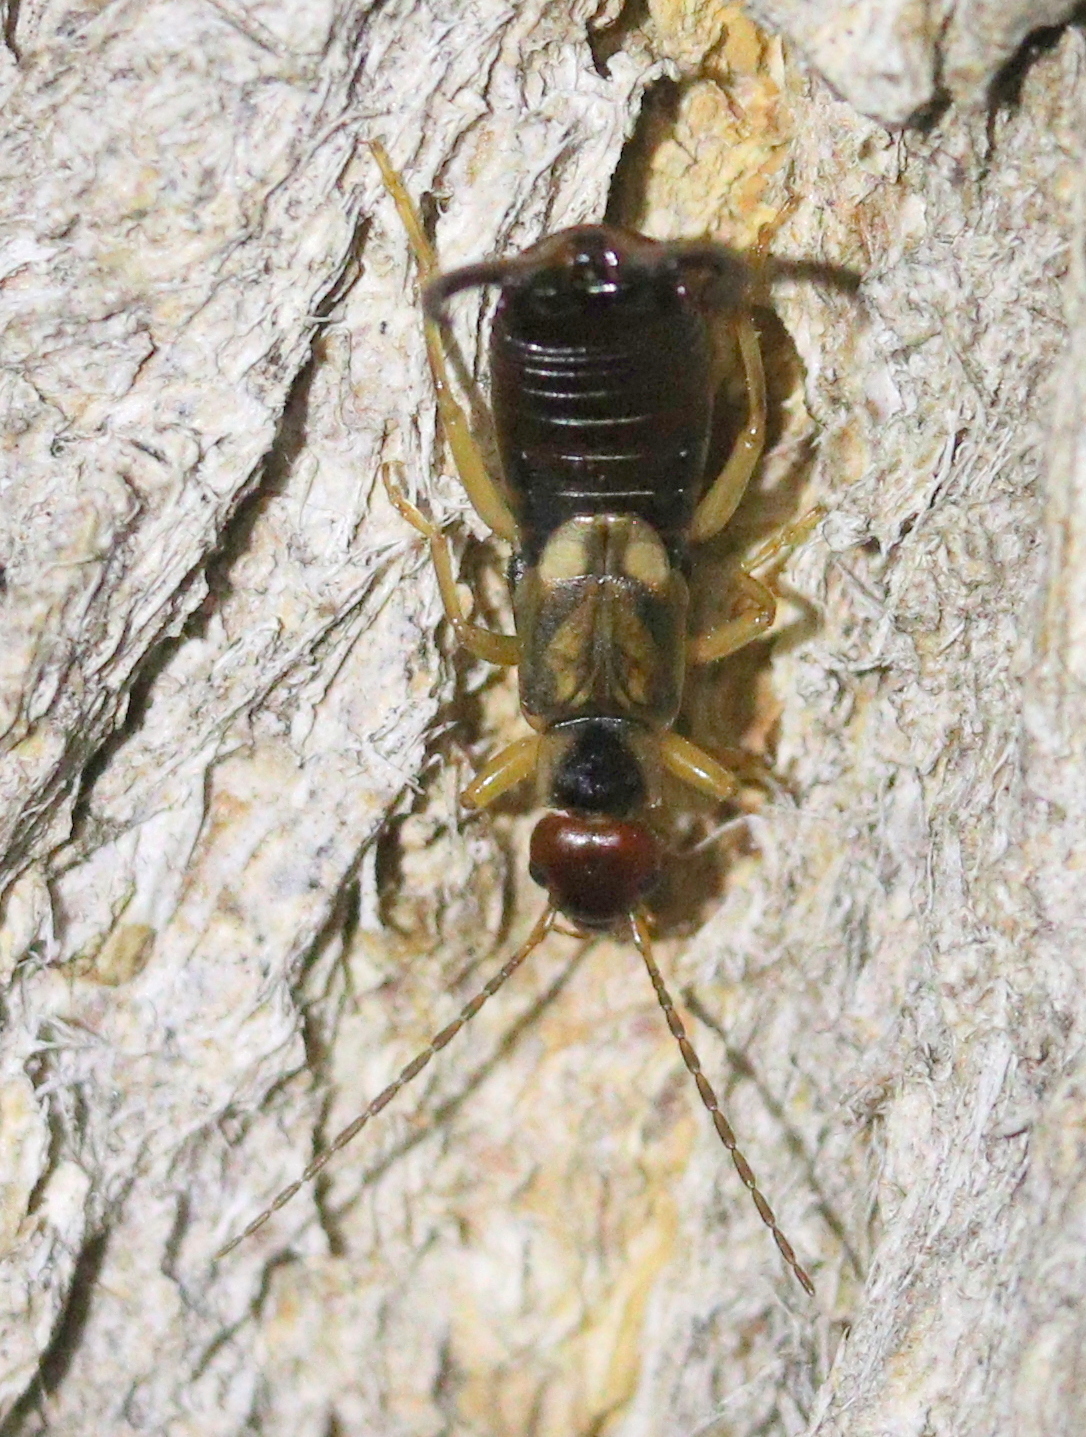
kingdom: Animalia
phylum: Arthropoda
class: Insecta
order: Dermaptera
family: Forficulidae
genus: Forficula
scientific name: Forficula
